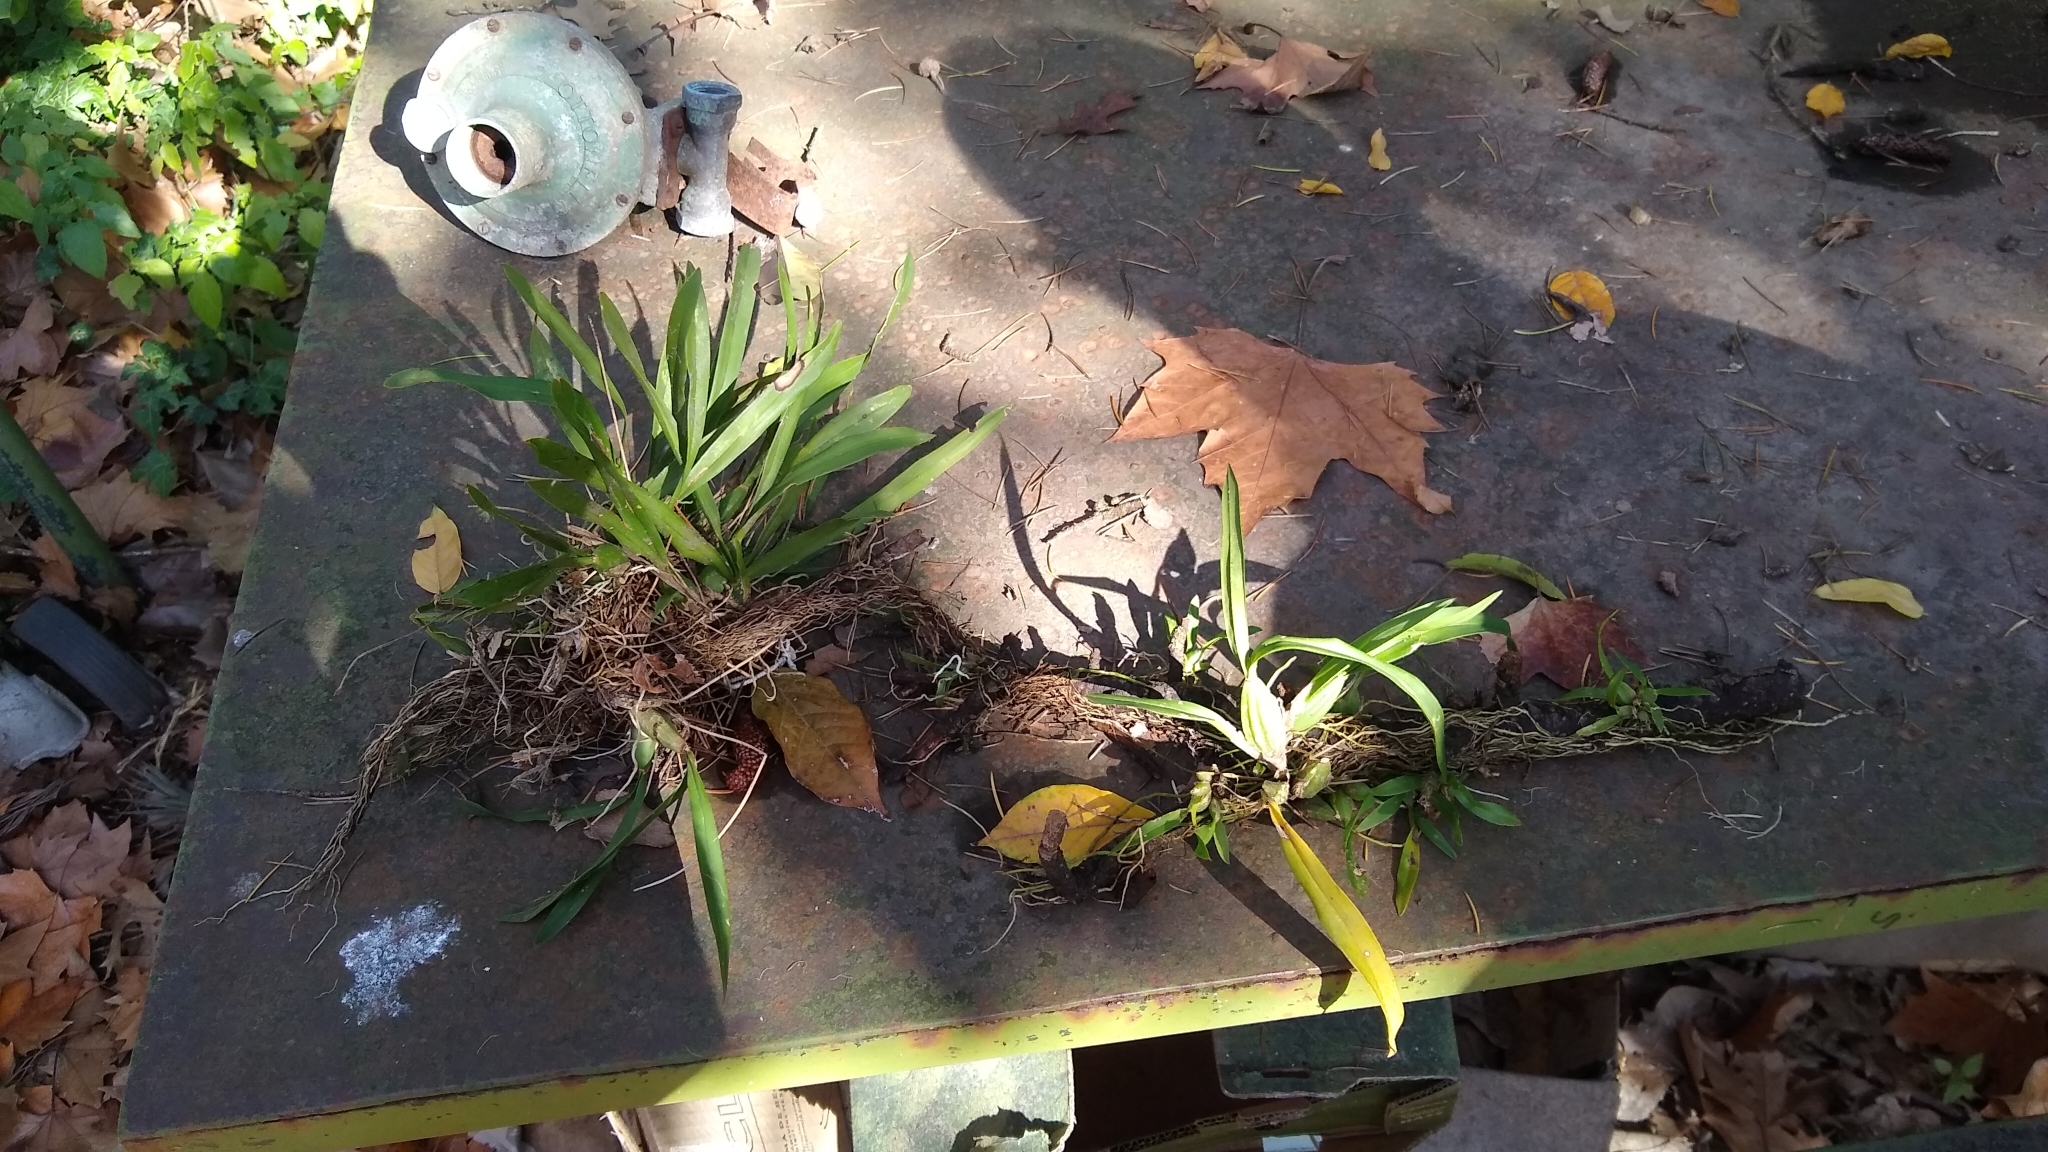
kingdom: Plantae
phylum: Tracheophyta
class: Liliopsida
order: Asparagales
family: Orchidaceae
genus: Gomesa
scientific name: Gomesa bifolia
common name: Dancing ladies
